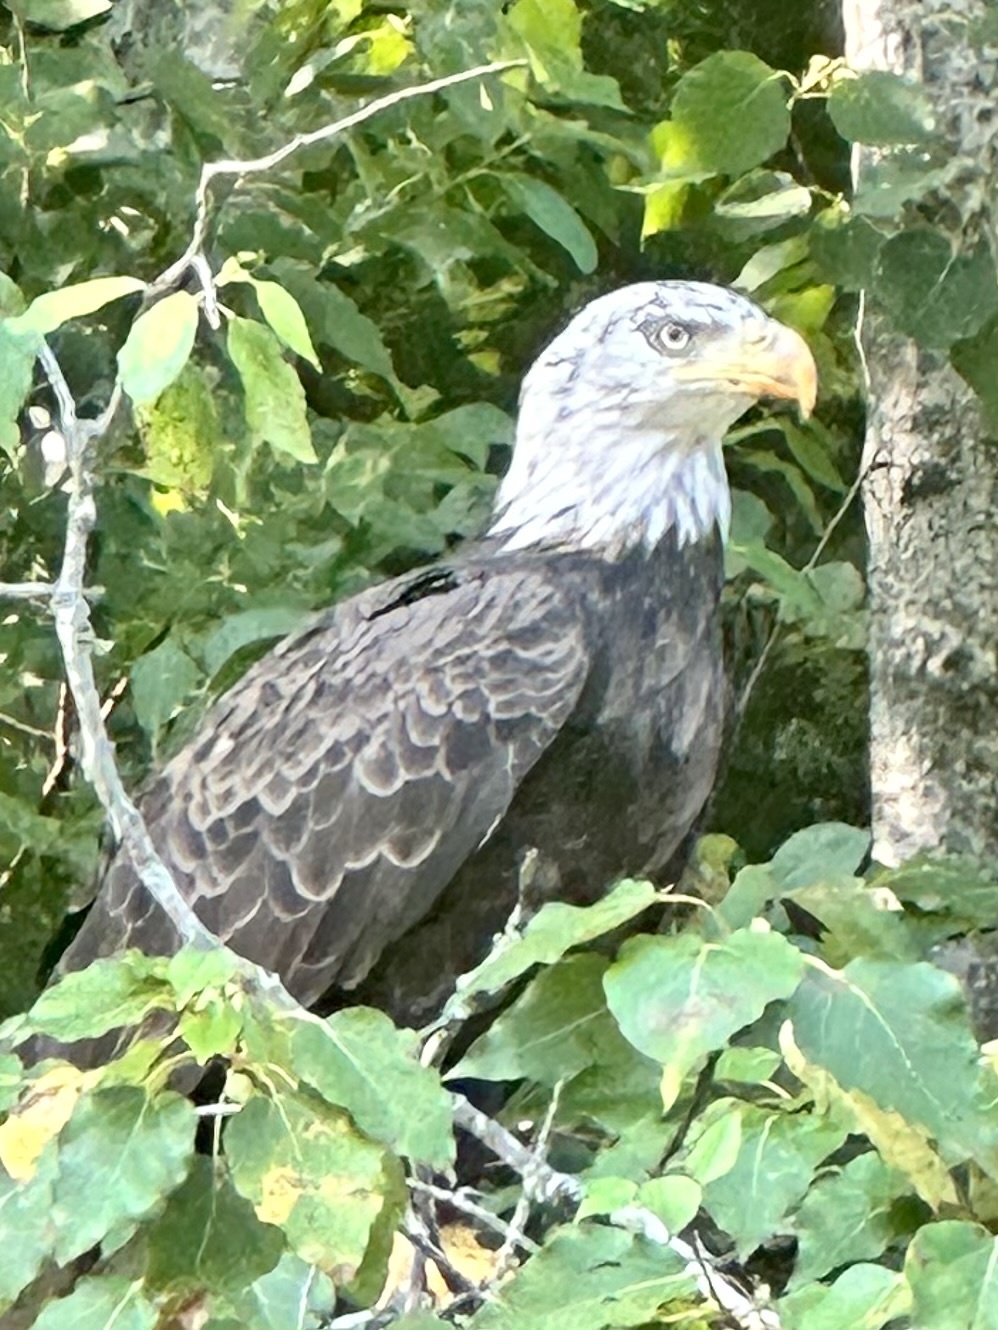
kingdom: Animalia
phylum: Chordata
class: Aves
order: Accipitriformes
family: Accipitridae
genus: Haliaeetus
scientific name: Haliaeetus leucocephalus
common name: Bald eagle
